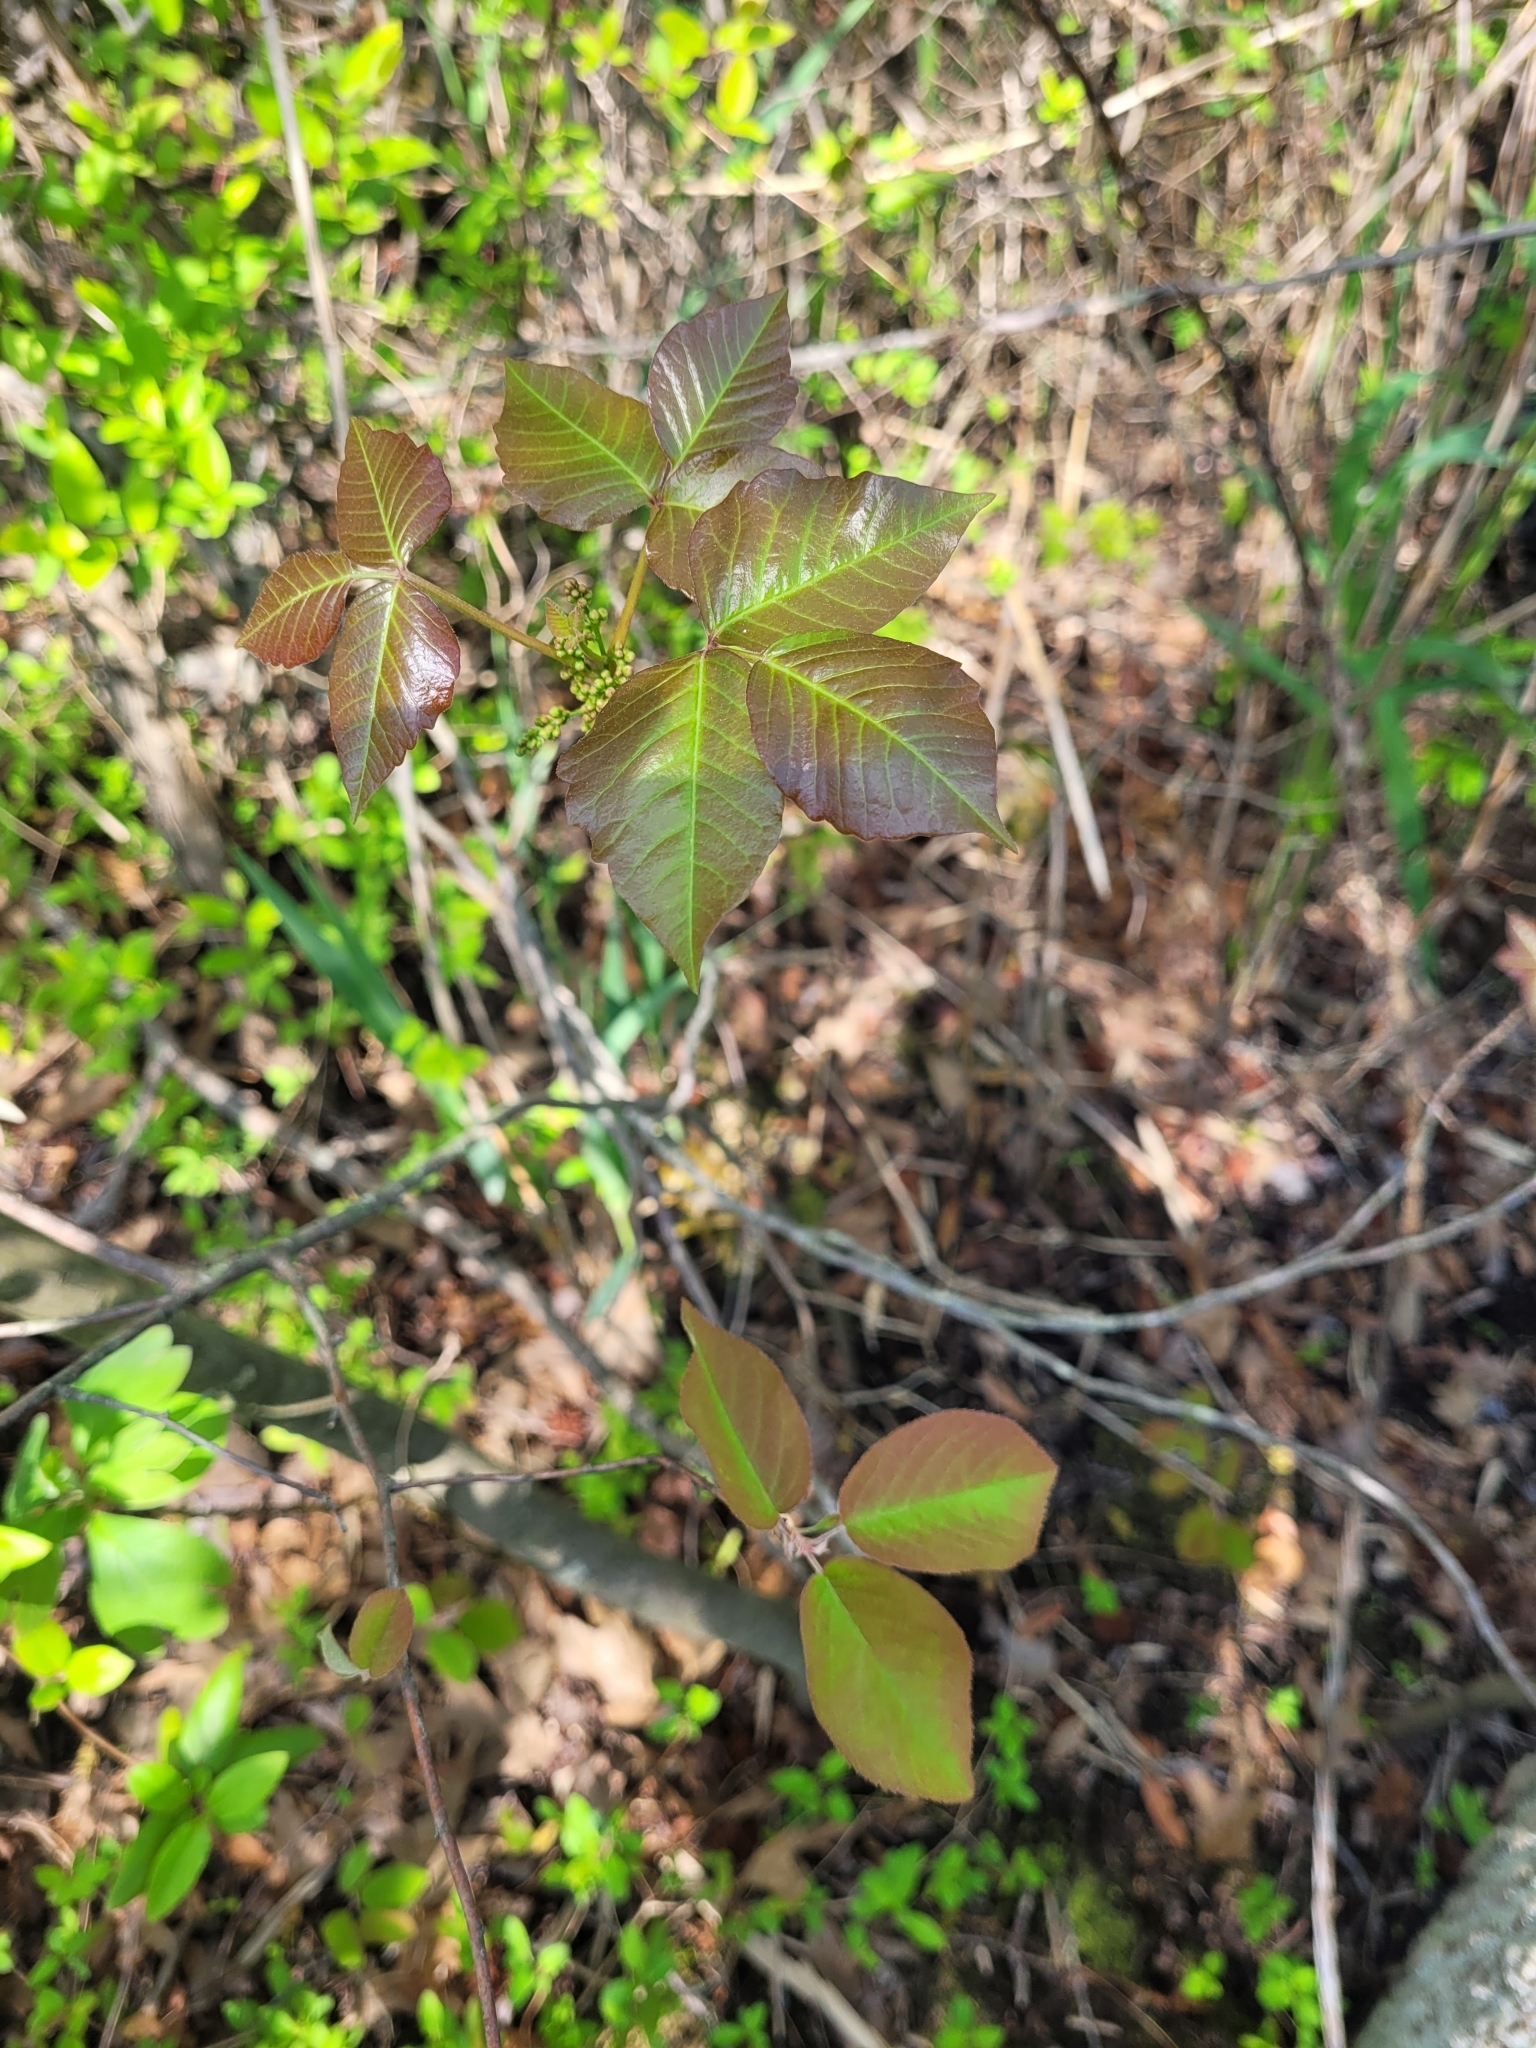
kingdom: Plantae
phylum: Tracheophyta
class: Magnoliopsida
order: Sapindales
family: Anacardiaceae
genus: Toxicodendron
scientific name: Toxicodendron radicans
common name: Poison ivy
